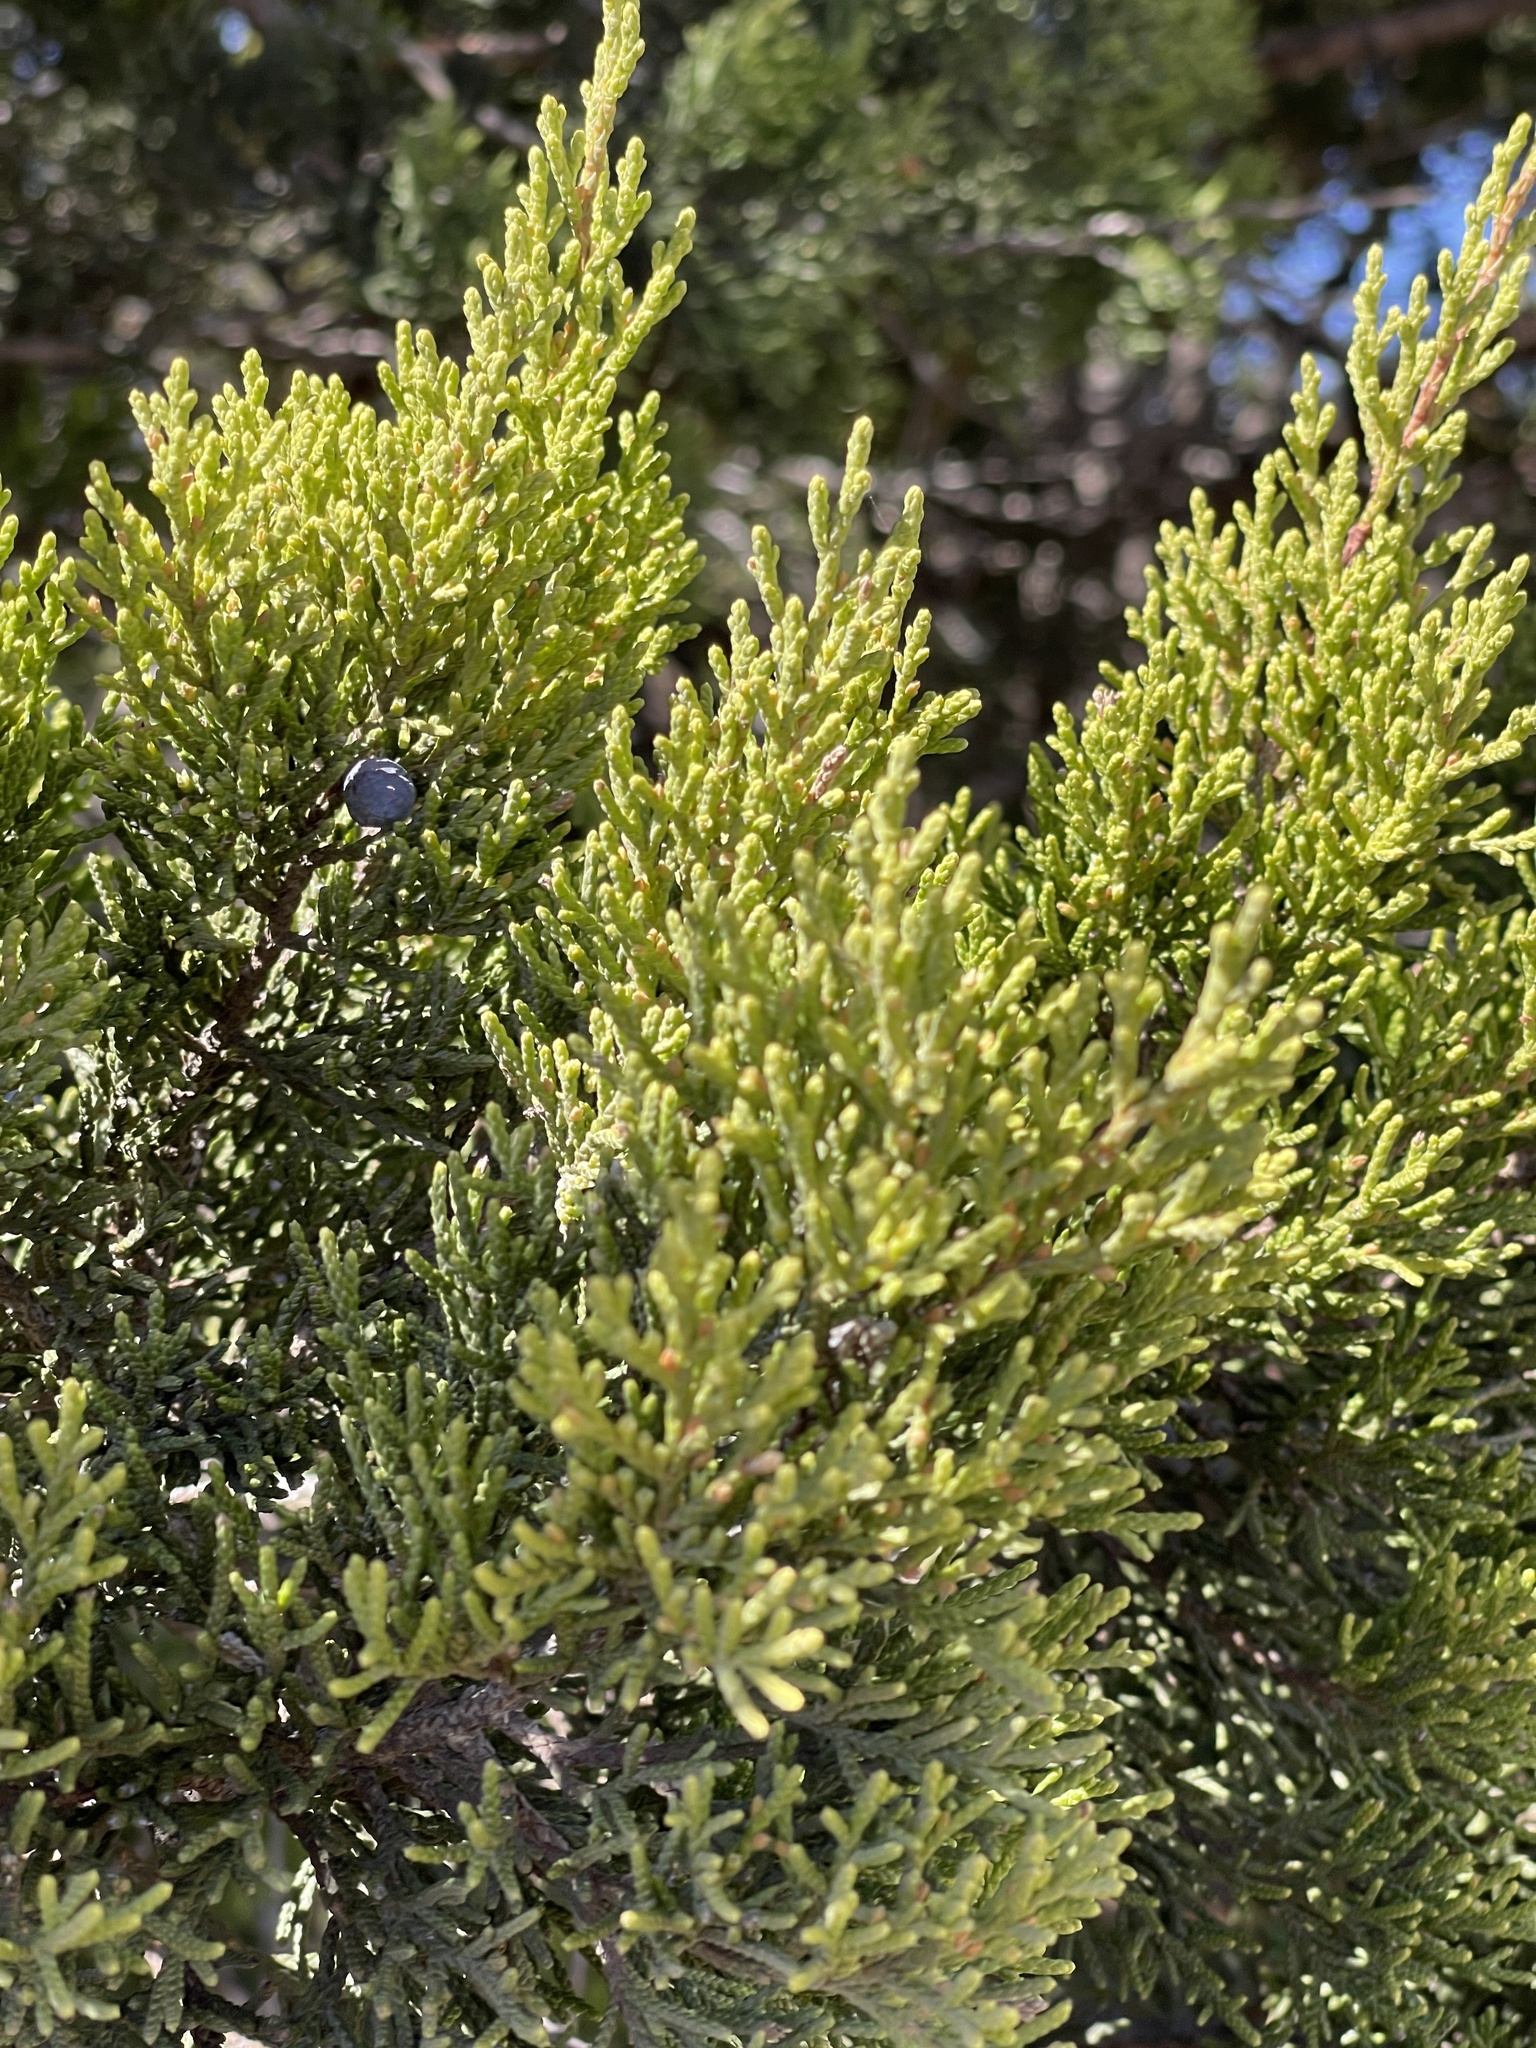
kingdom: Plantae
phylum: Tracheophyta
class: Pinopsida
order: Pinales
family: Cupressaceae
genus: Juniperus
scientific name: Juniperus ashei
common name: Mexican juniper
